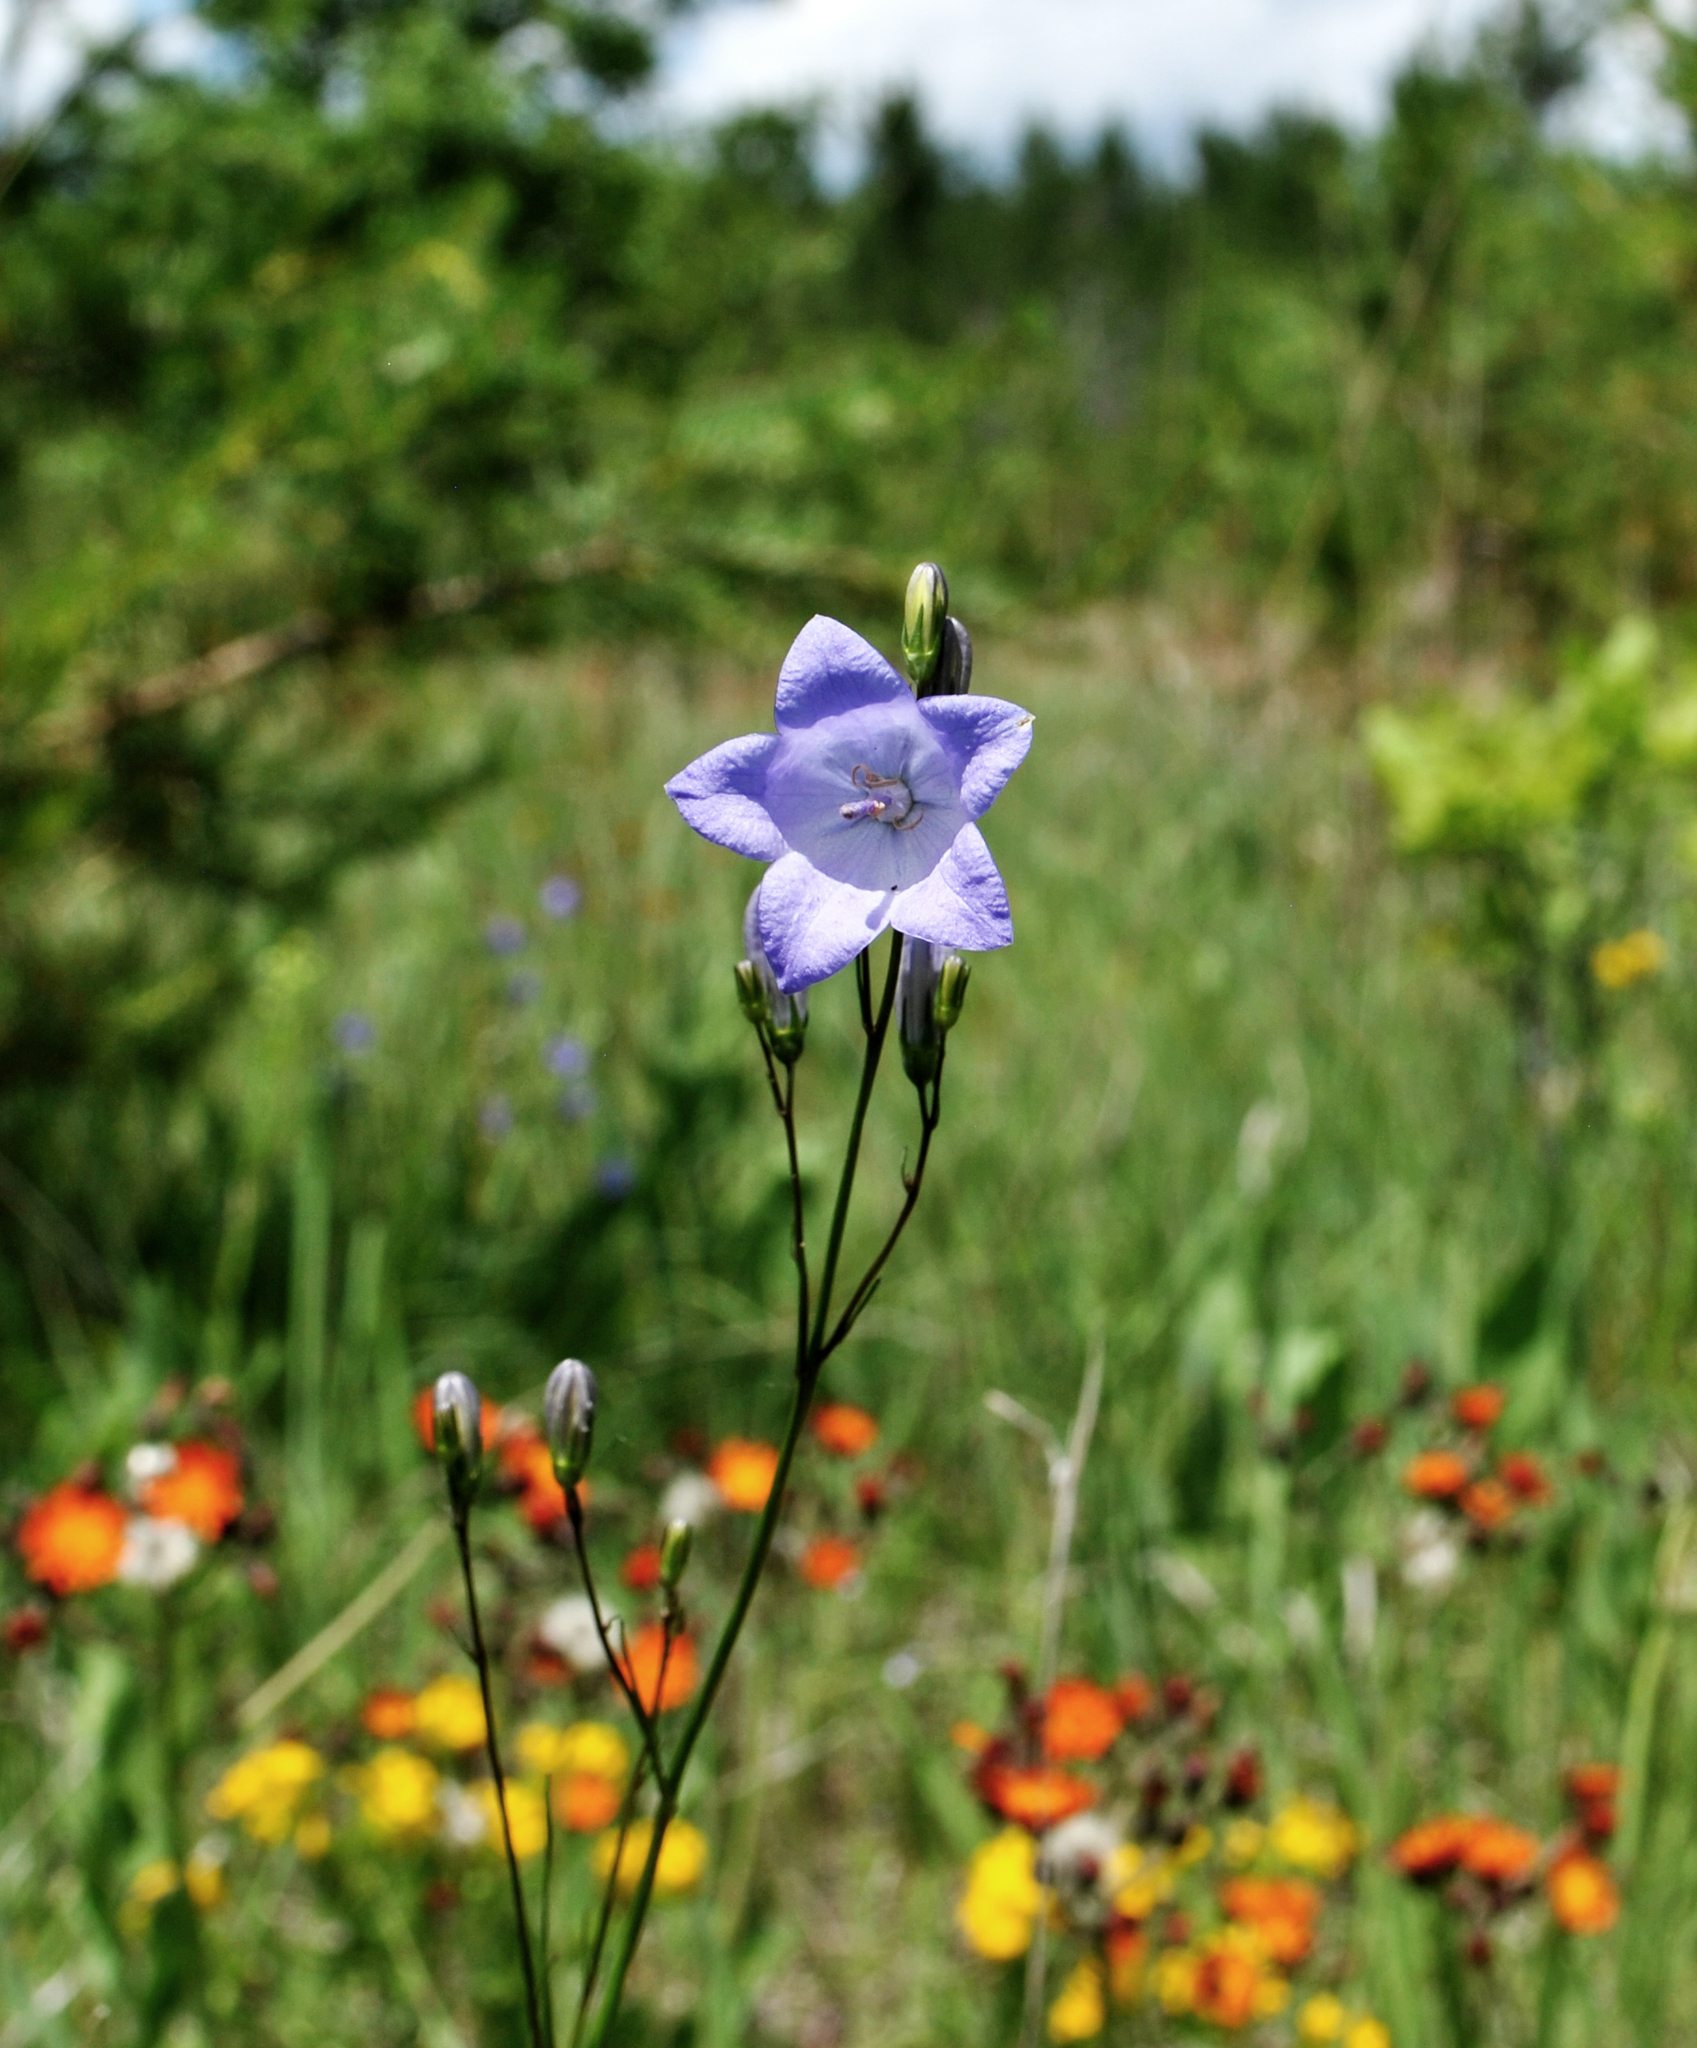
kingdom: Plantae
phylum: Tracheophyta
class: Magnoliopsida
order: Asterales
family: Campanulaceae
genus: Campanula
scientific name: Campanula intercedens
